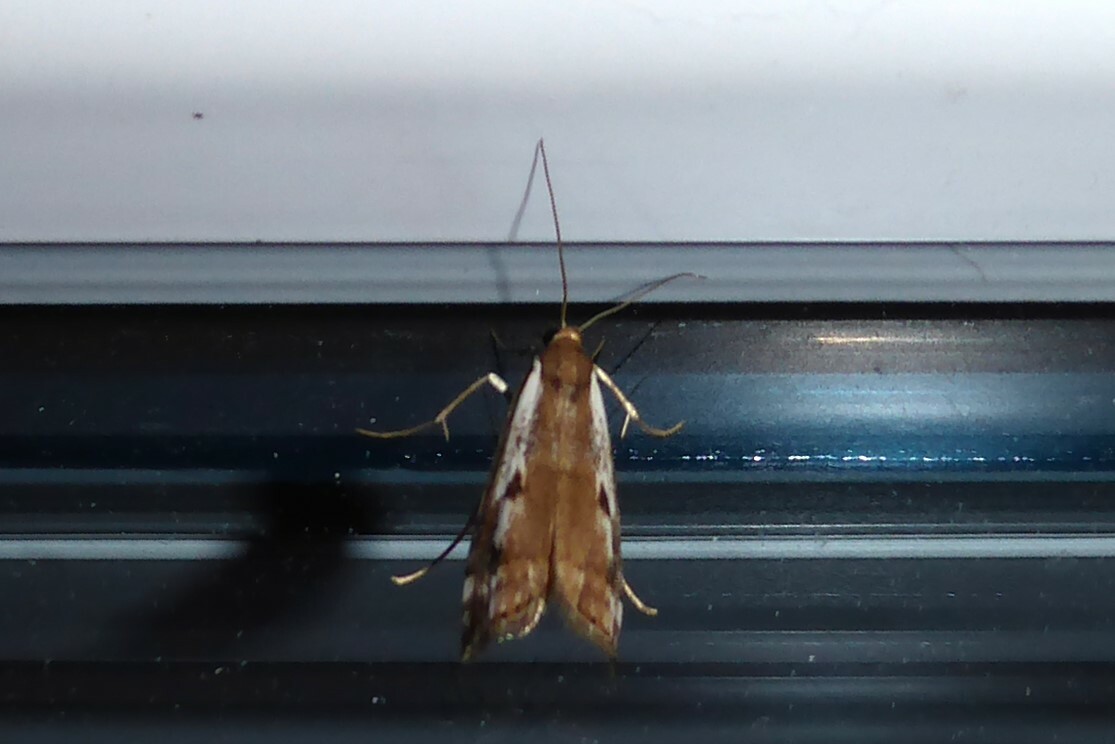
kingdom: Animalia
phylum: Arthropoda
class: Insecta
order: Lepidoptera
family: Crambidae
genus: Orocrambus
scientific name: Orocrambus vulgaris
